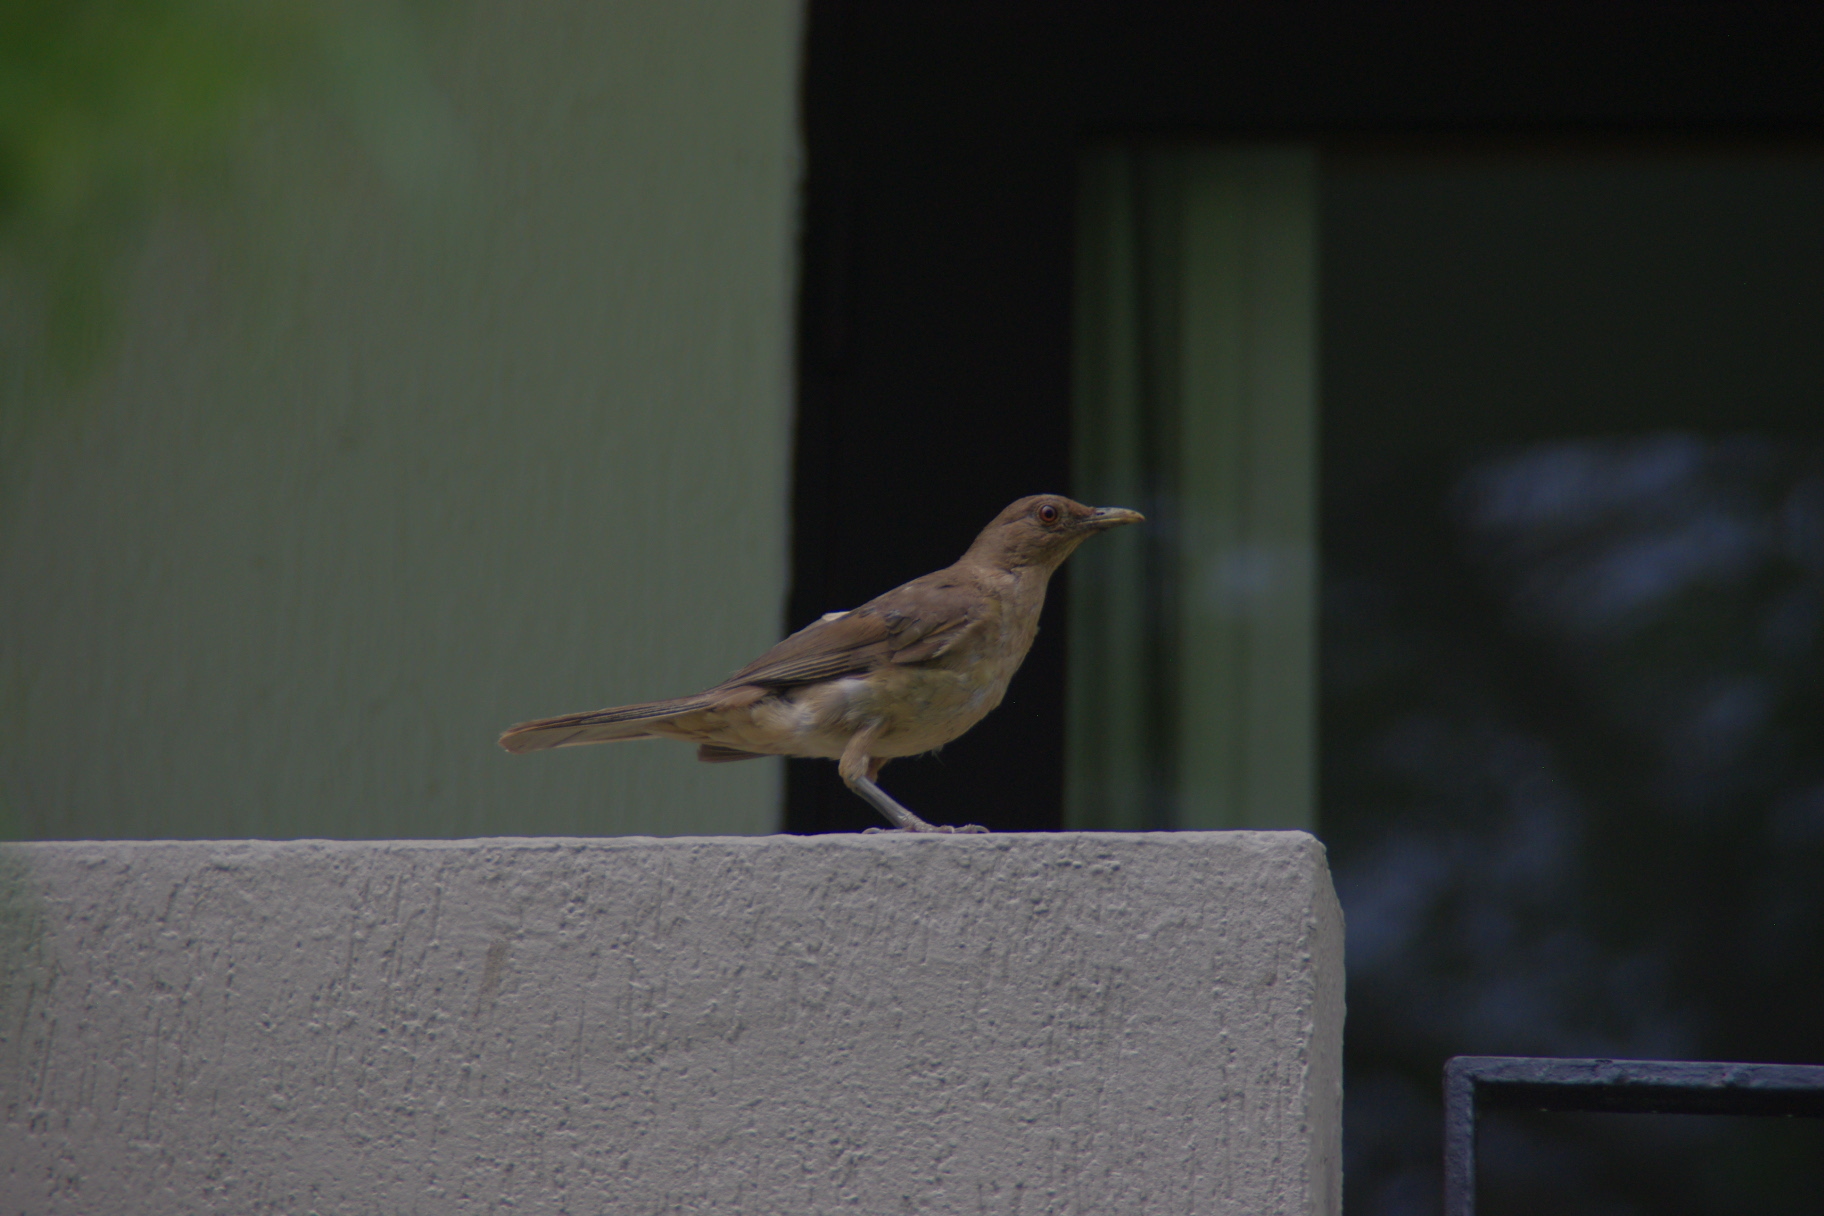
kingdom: Animalia
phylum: Chordata
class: Aves
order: Passeriformes
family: Turdidae
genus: Turdus
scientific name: Turdus grayi
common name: Clay-colored thrush
